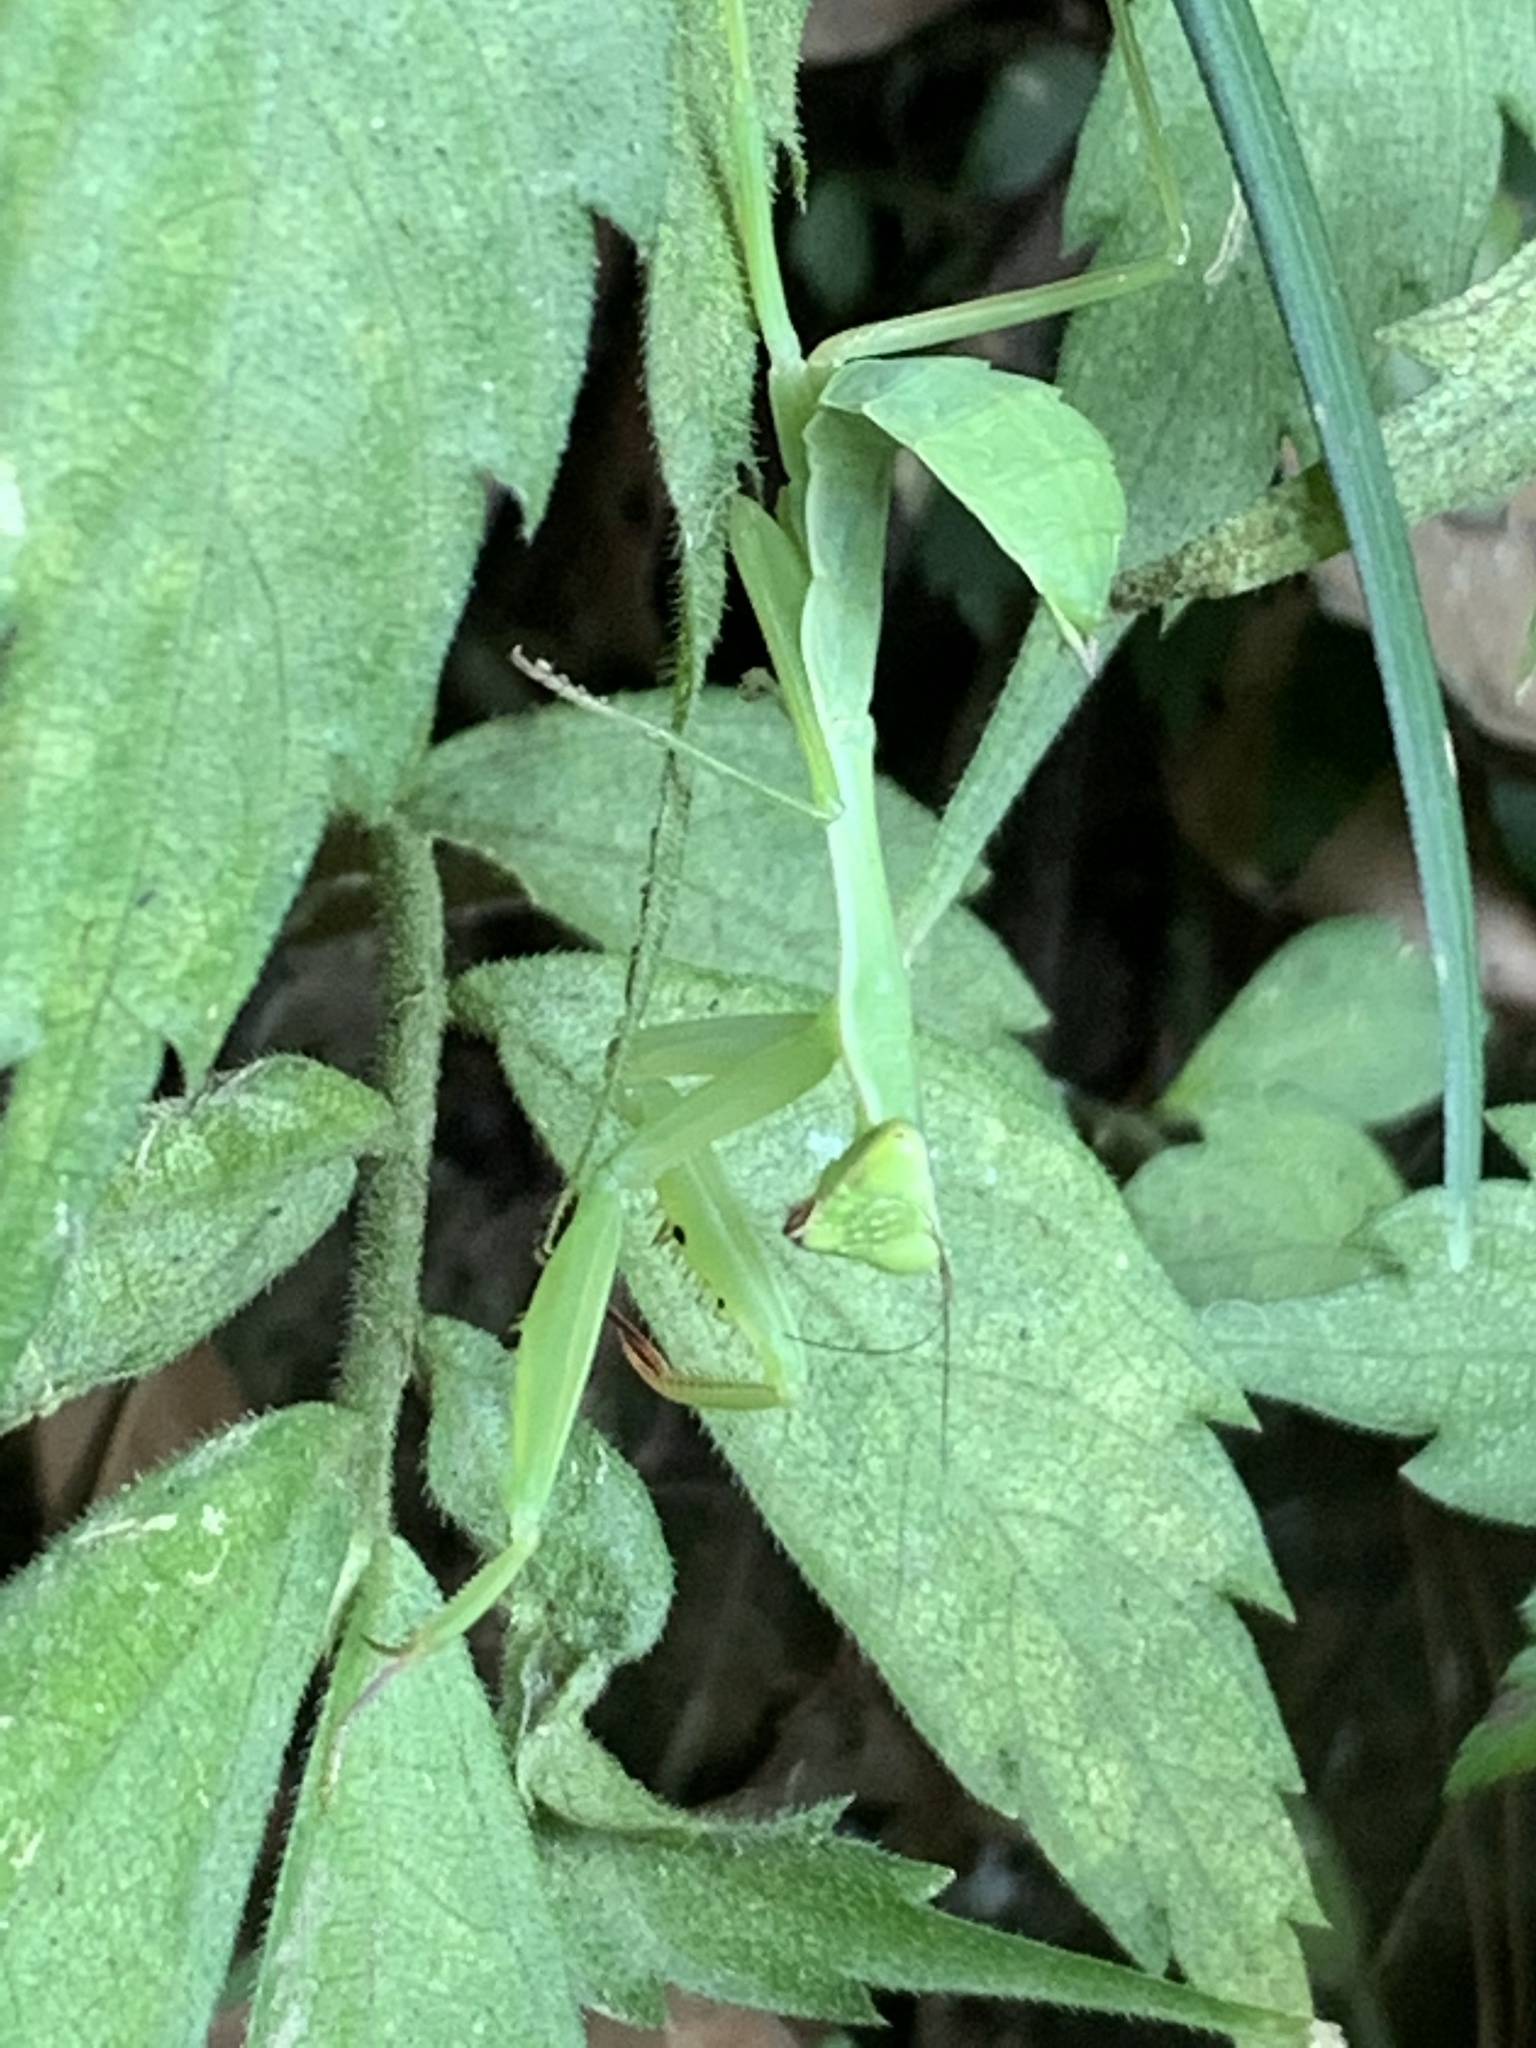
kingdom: Animalia
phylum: Arthropoda
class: Insecta
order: Mantodea
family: Mantidae
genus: Titanodula
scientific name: Titanodula formosana
